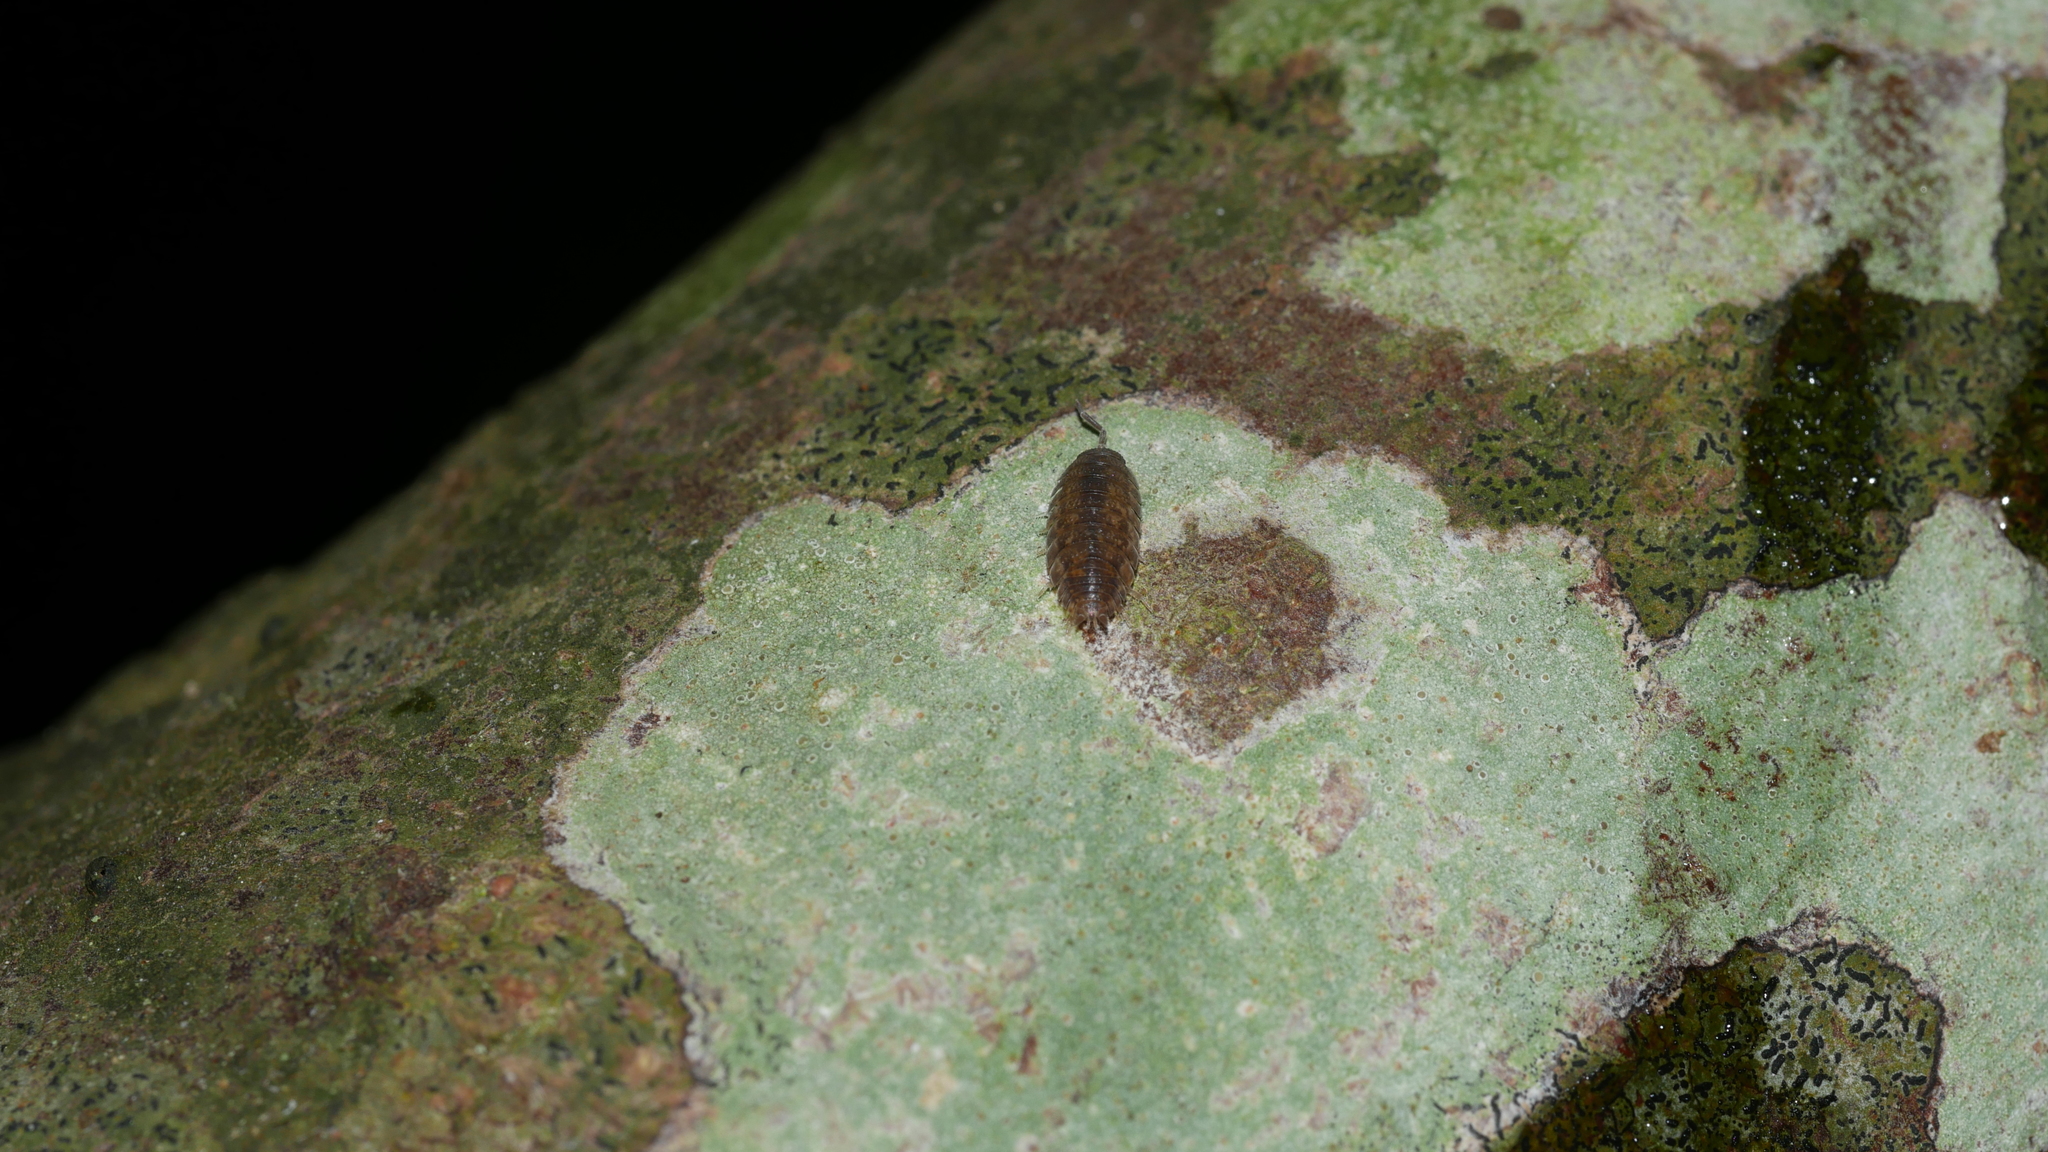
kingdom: Animalia
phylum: Arthropoda
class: Malacostraca
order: Isopoda
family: Porcellionidae
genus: Porcellio
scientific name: Porcellio scaber
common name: Common rough woodlouse
